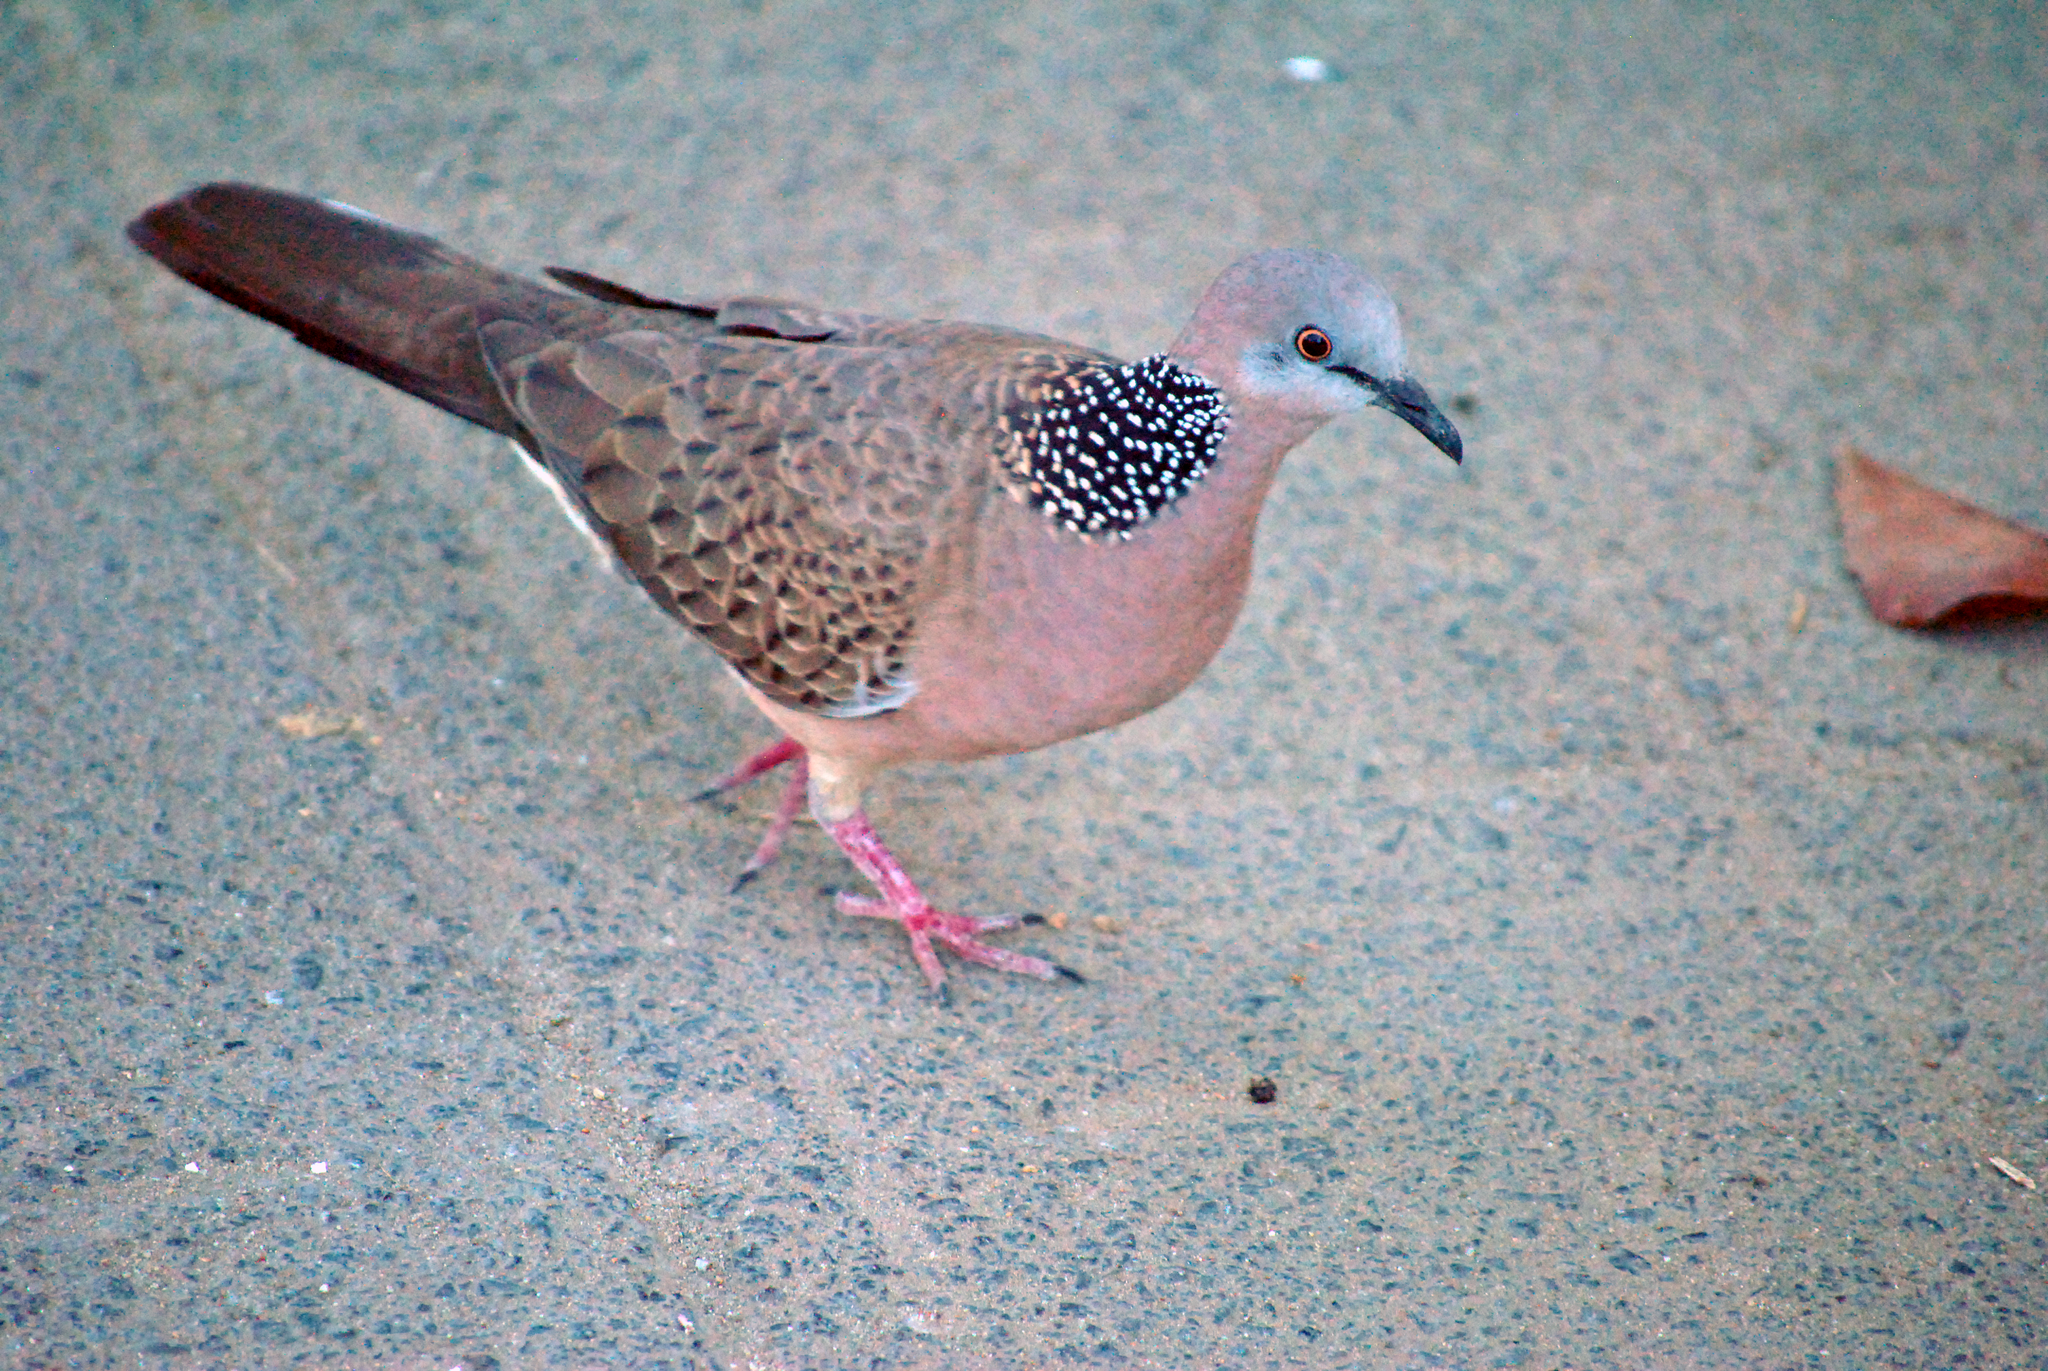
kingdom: Animalia
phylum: Chordata
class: Aves
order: Columbiformes
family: Columbidae
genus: Spilopelia
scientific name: Spilopelia chinensis
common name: Spotted dove
